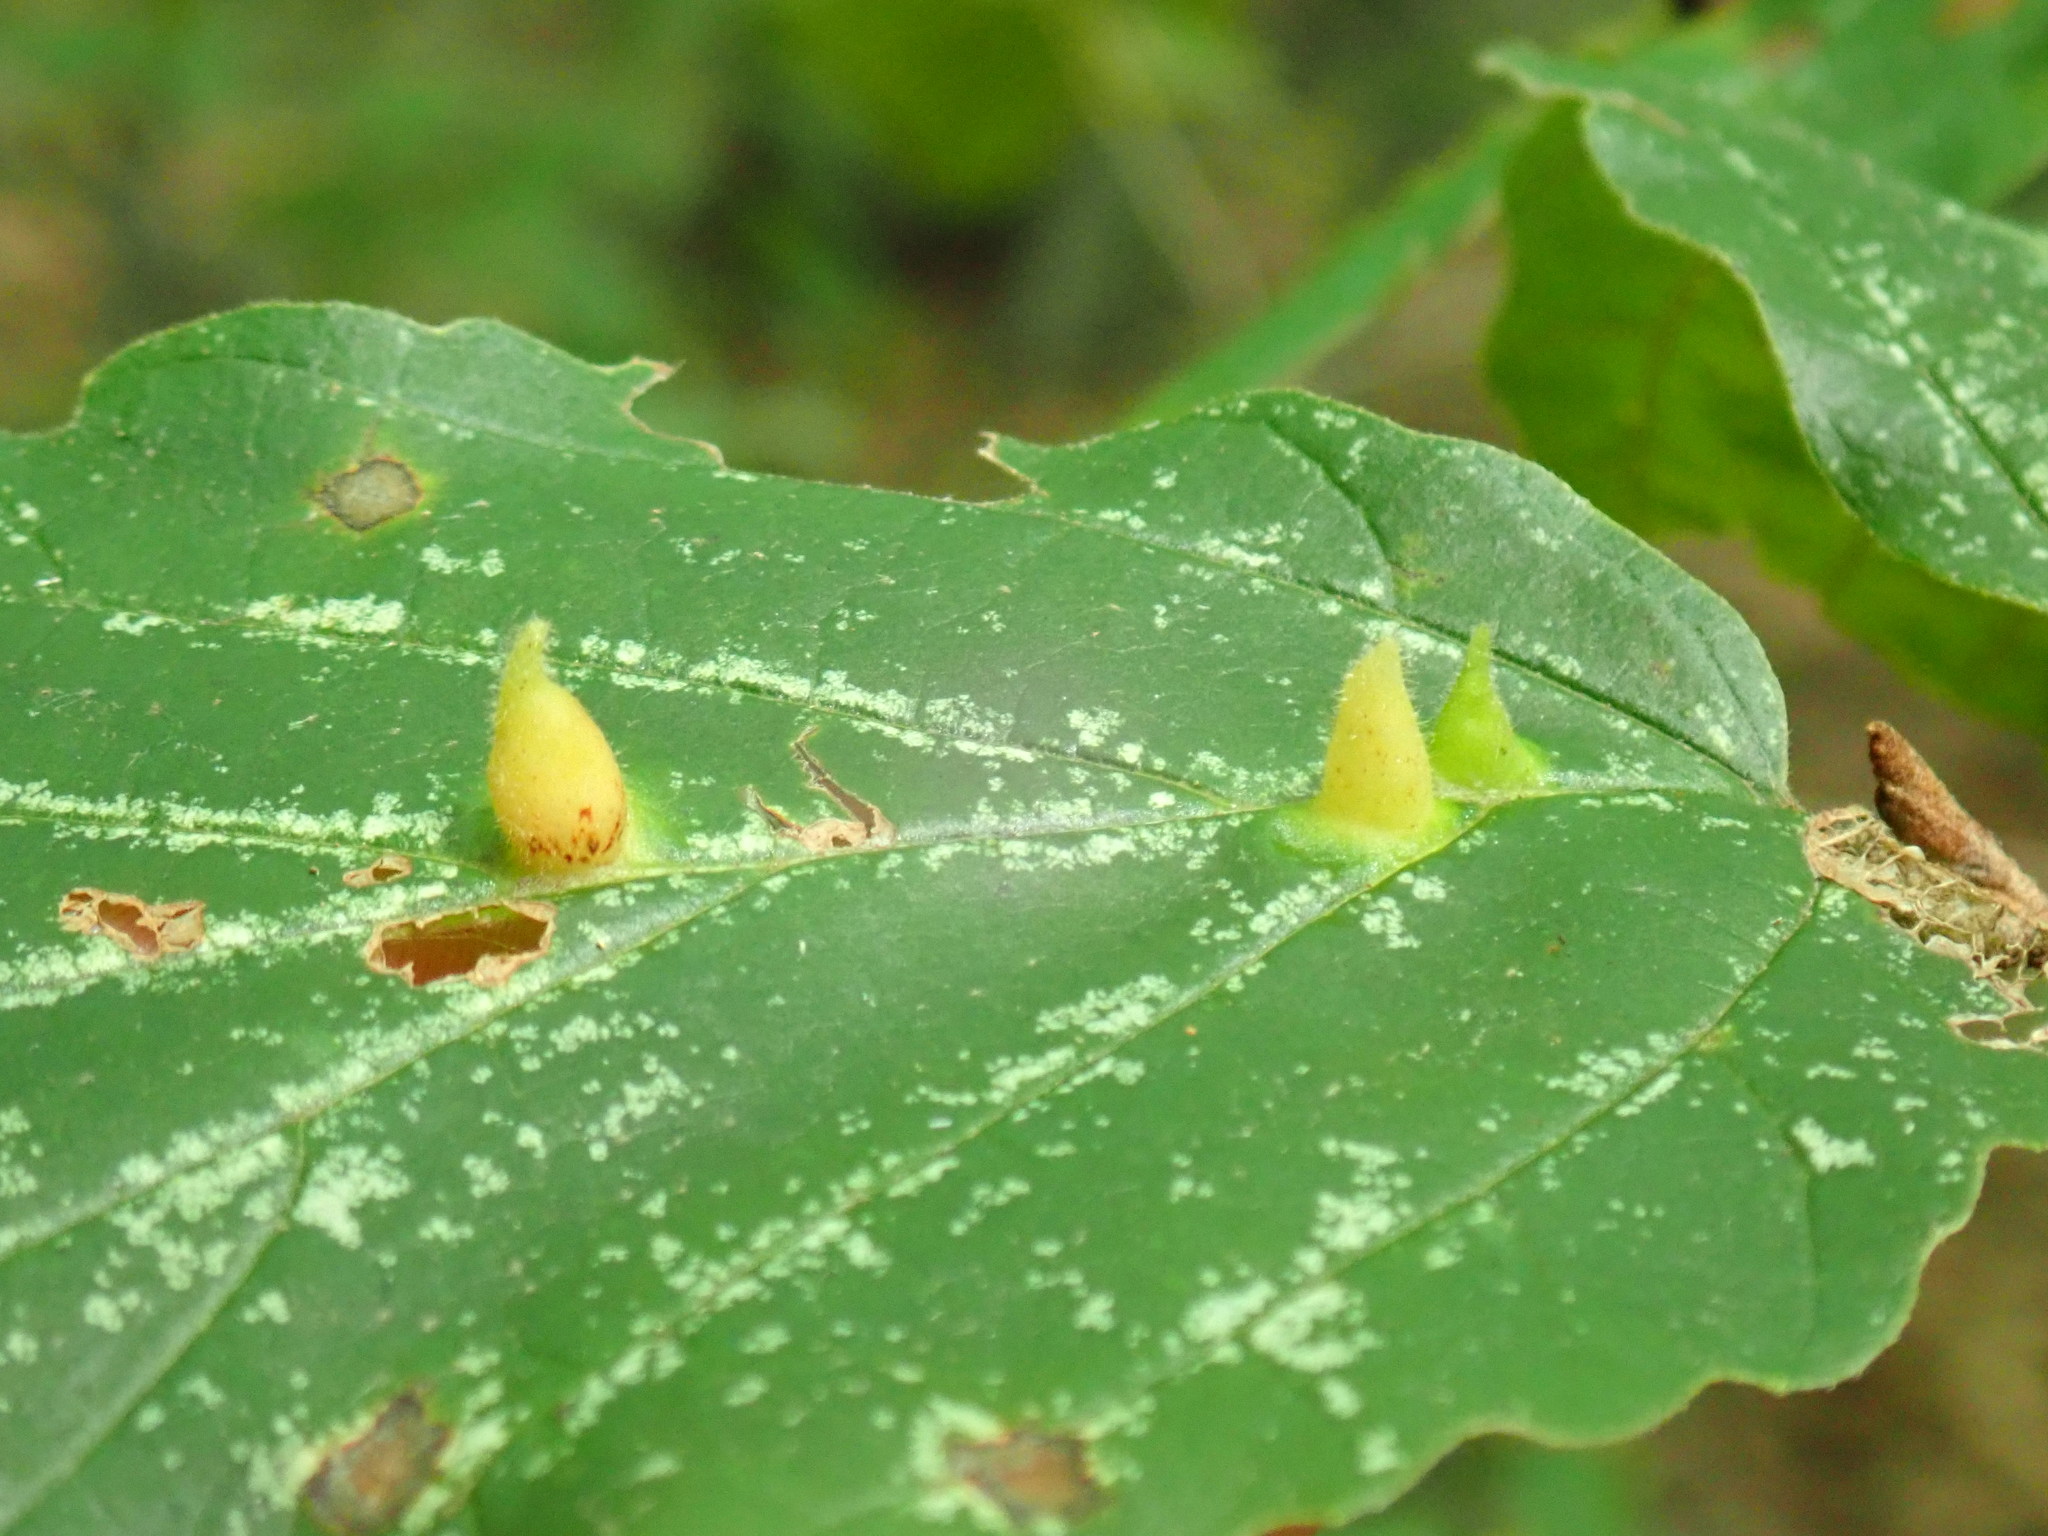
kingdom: Animalia
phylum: Arthropoda
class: Insecta
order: Hemiptera
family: Aphididae
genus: Hormaphis
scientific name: Hormaphis hamamelidis
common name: Witch-hazel cone gall aphid
